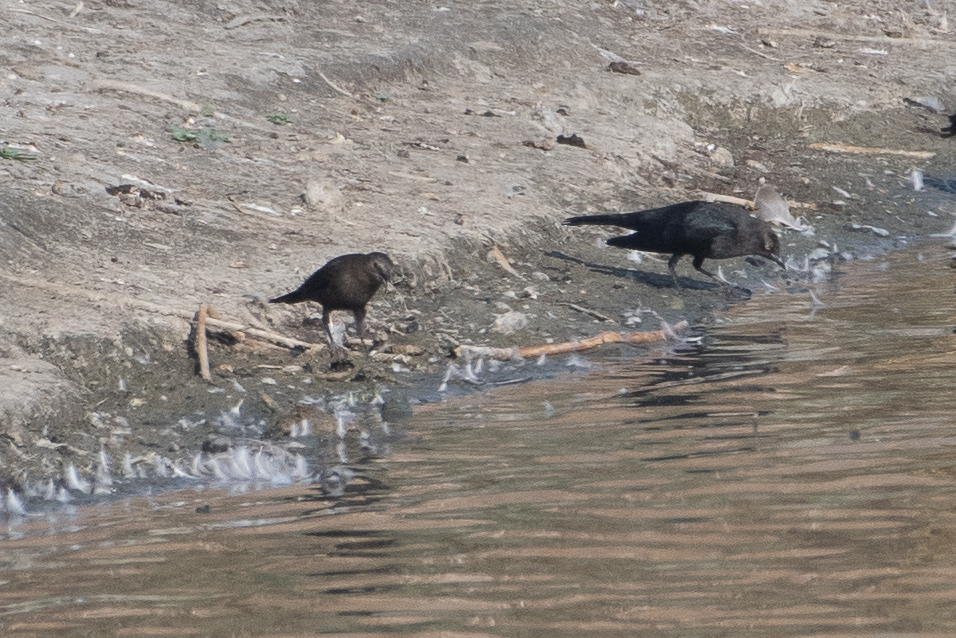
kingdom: Animalia
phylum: Chordata
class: Aves
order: Passeriformes
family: Icteridae
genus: Euphagus
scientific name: Euphagus cyanocephalus
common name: Brewer's blackbird
